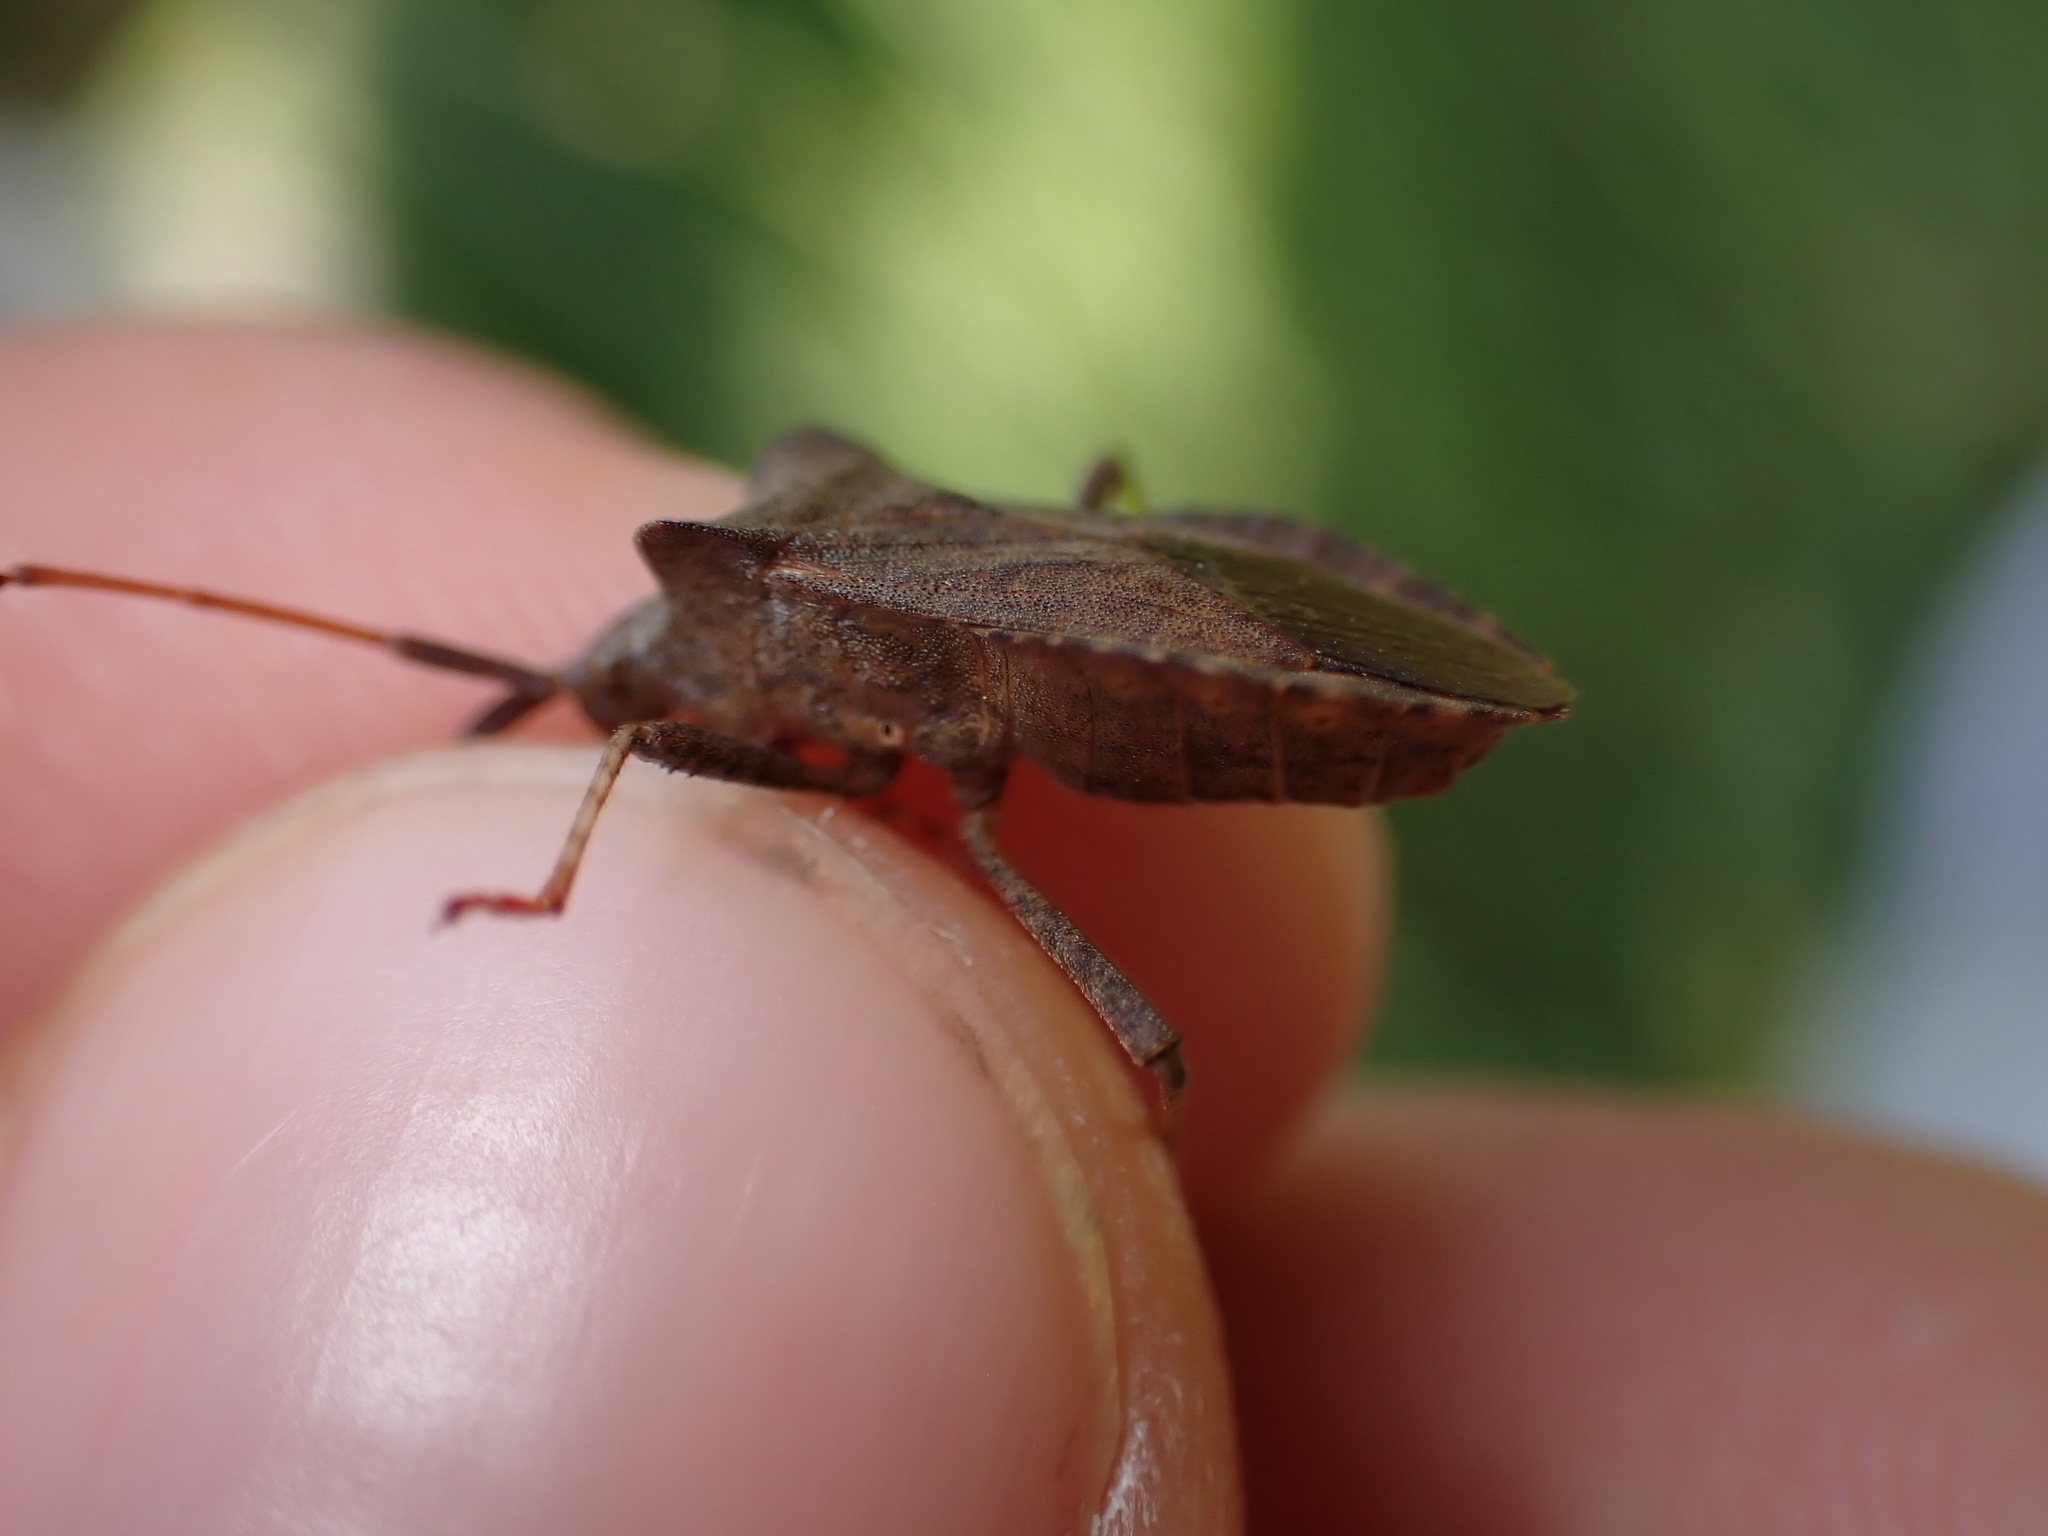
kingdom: Animalia
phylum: Arthropoda
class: Insecta
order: Hemiptera
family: Coreidae
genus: Coreus
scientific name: Coreus marginatus
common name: Dock bug
